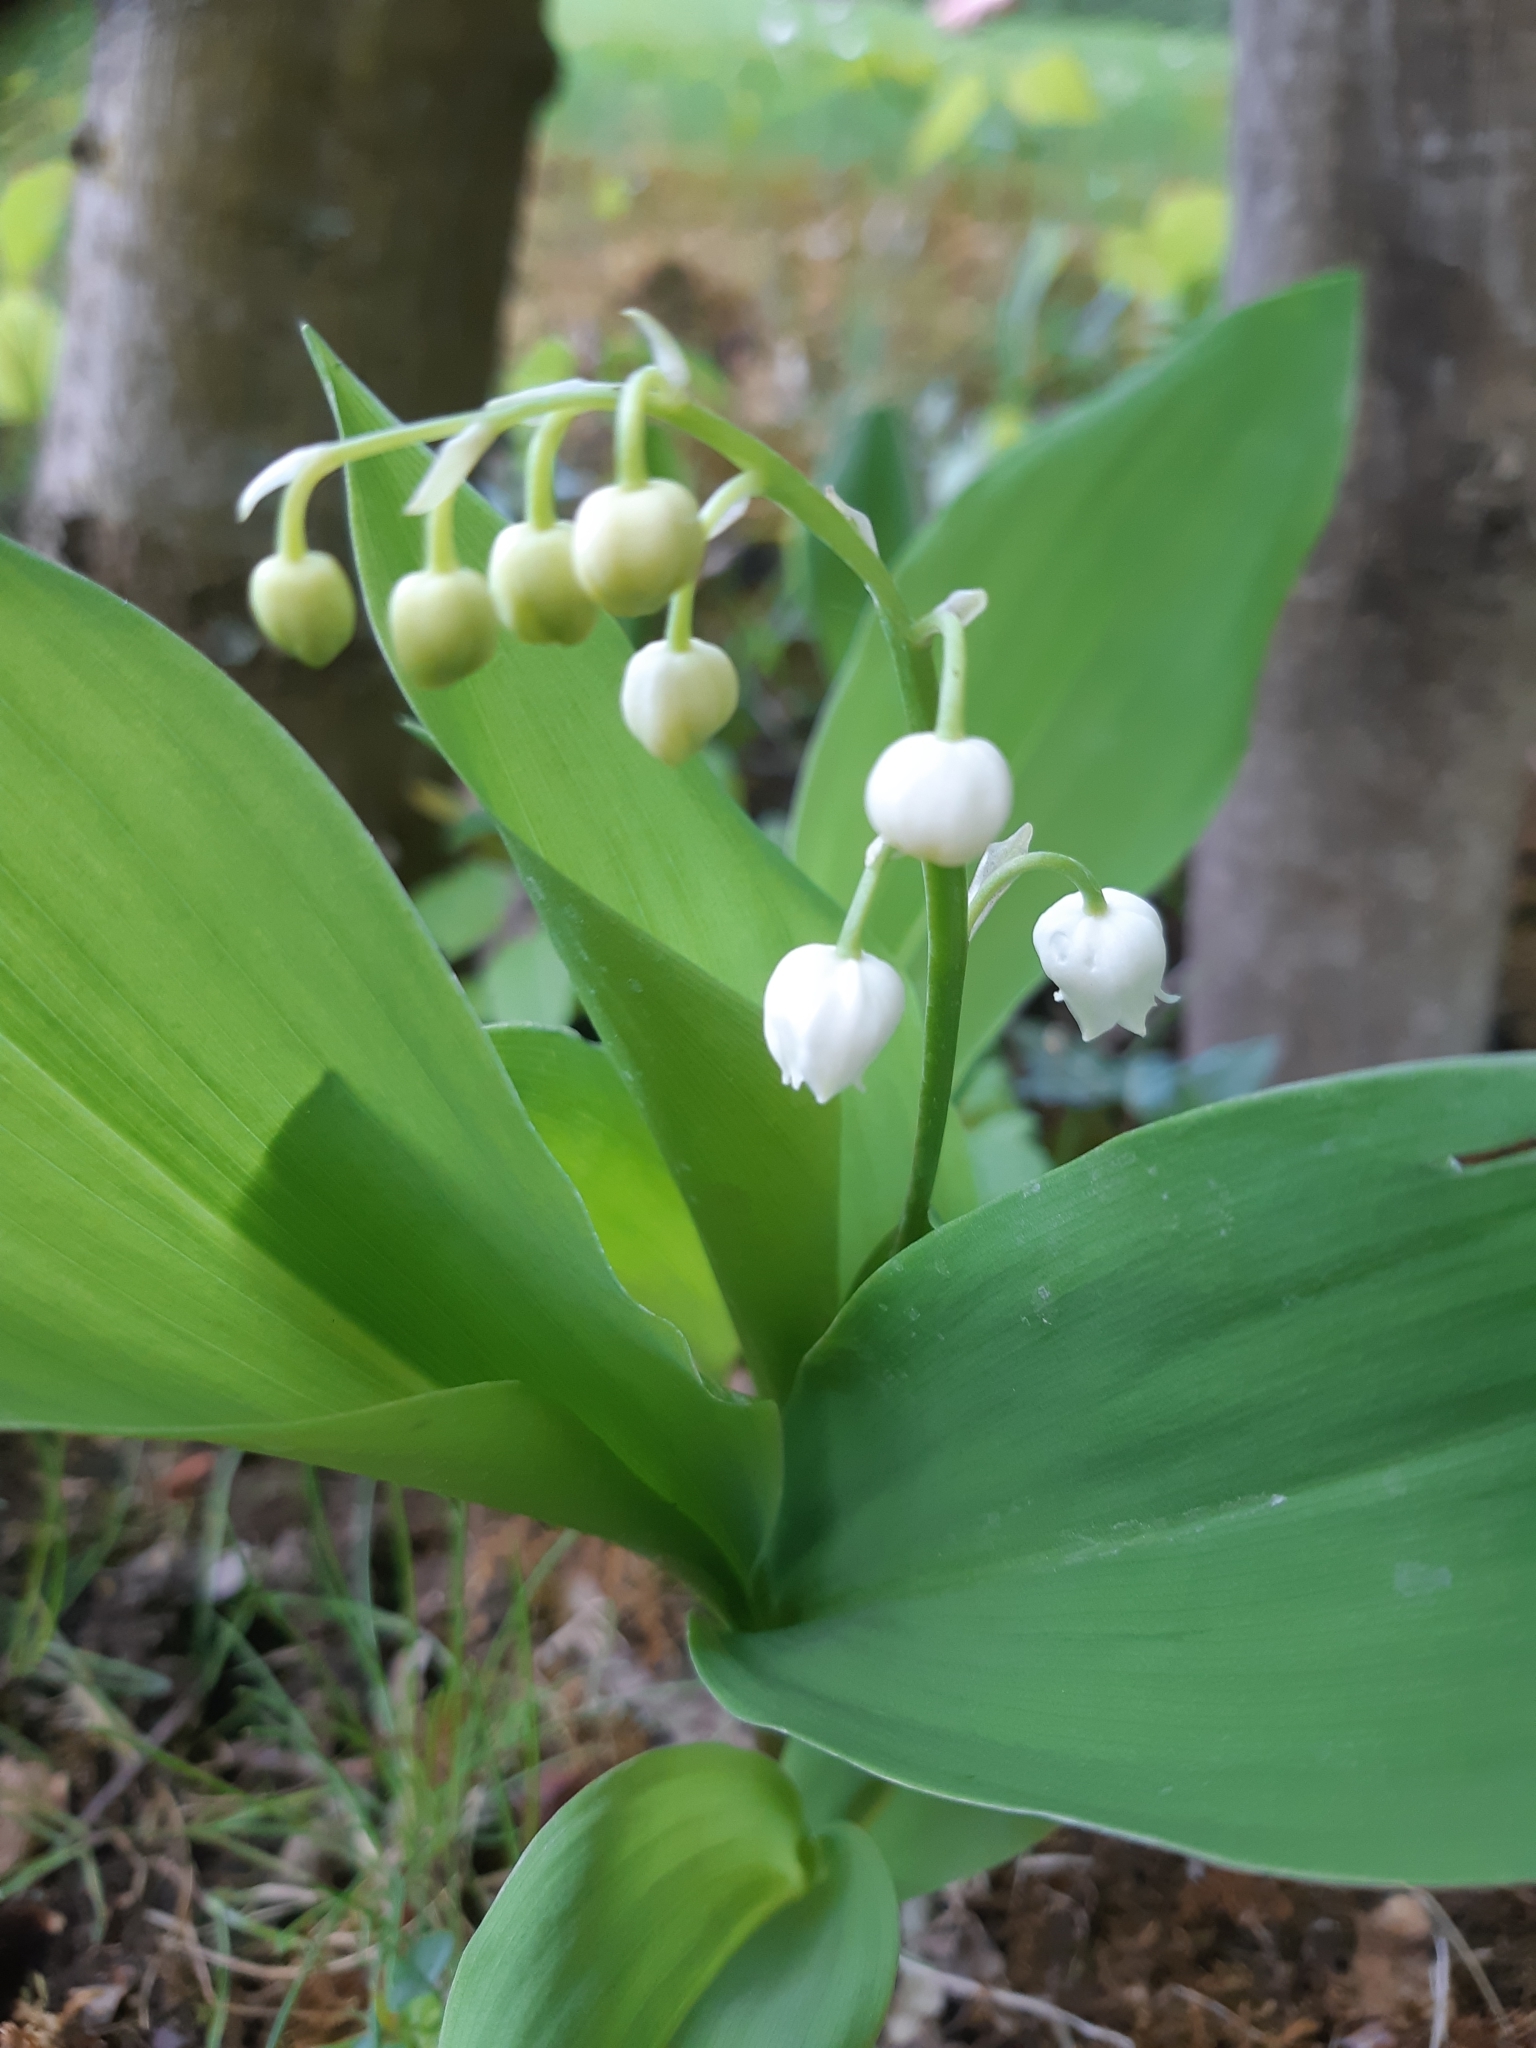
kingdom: Plantae
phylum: Tracheophyta
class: Liliopsida
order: Asparagales
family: Asparagaceae
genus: Convallaria
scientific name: Convallaria majalis
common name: Lily-of-the-valley
